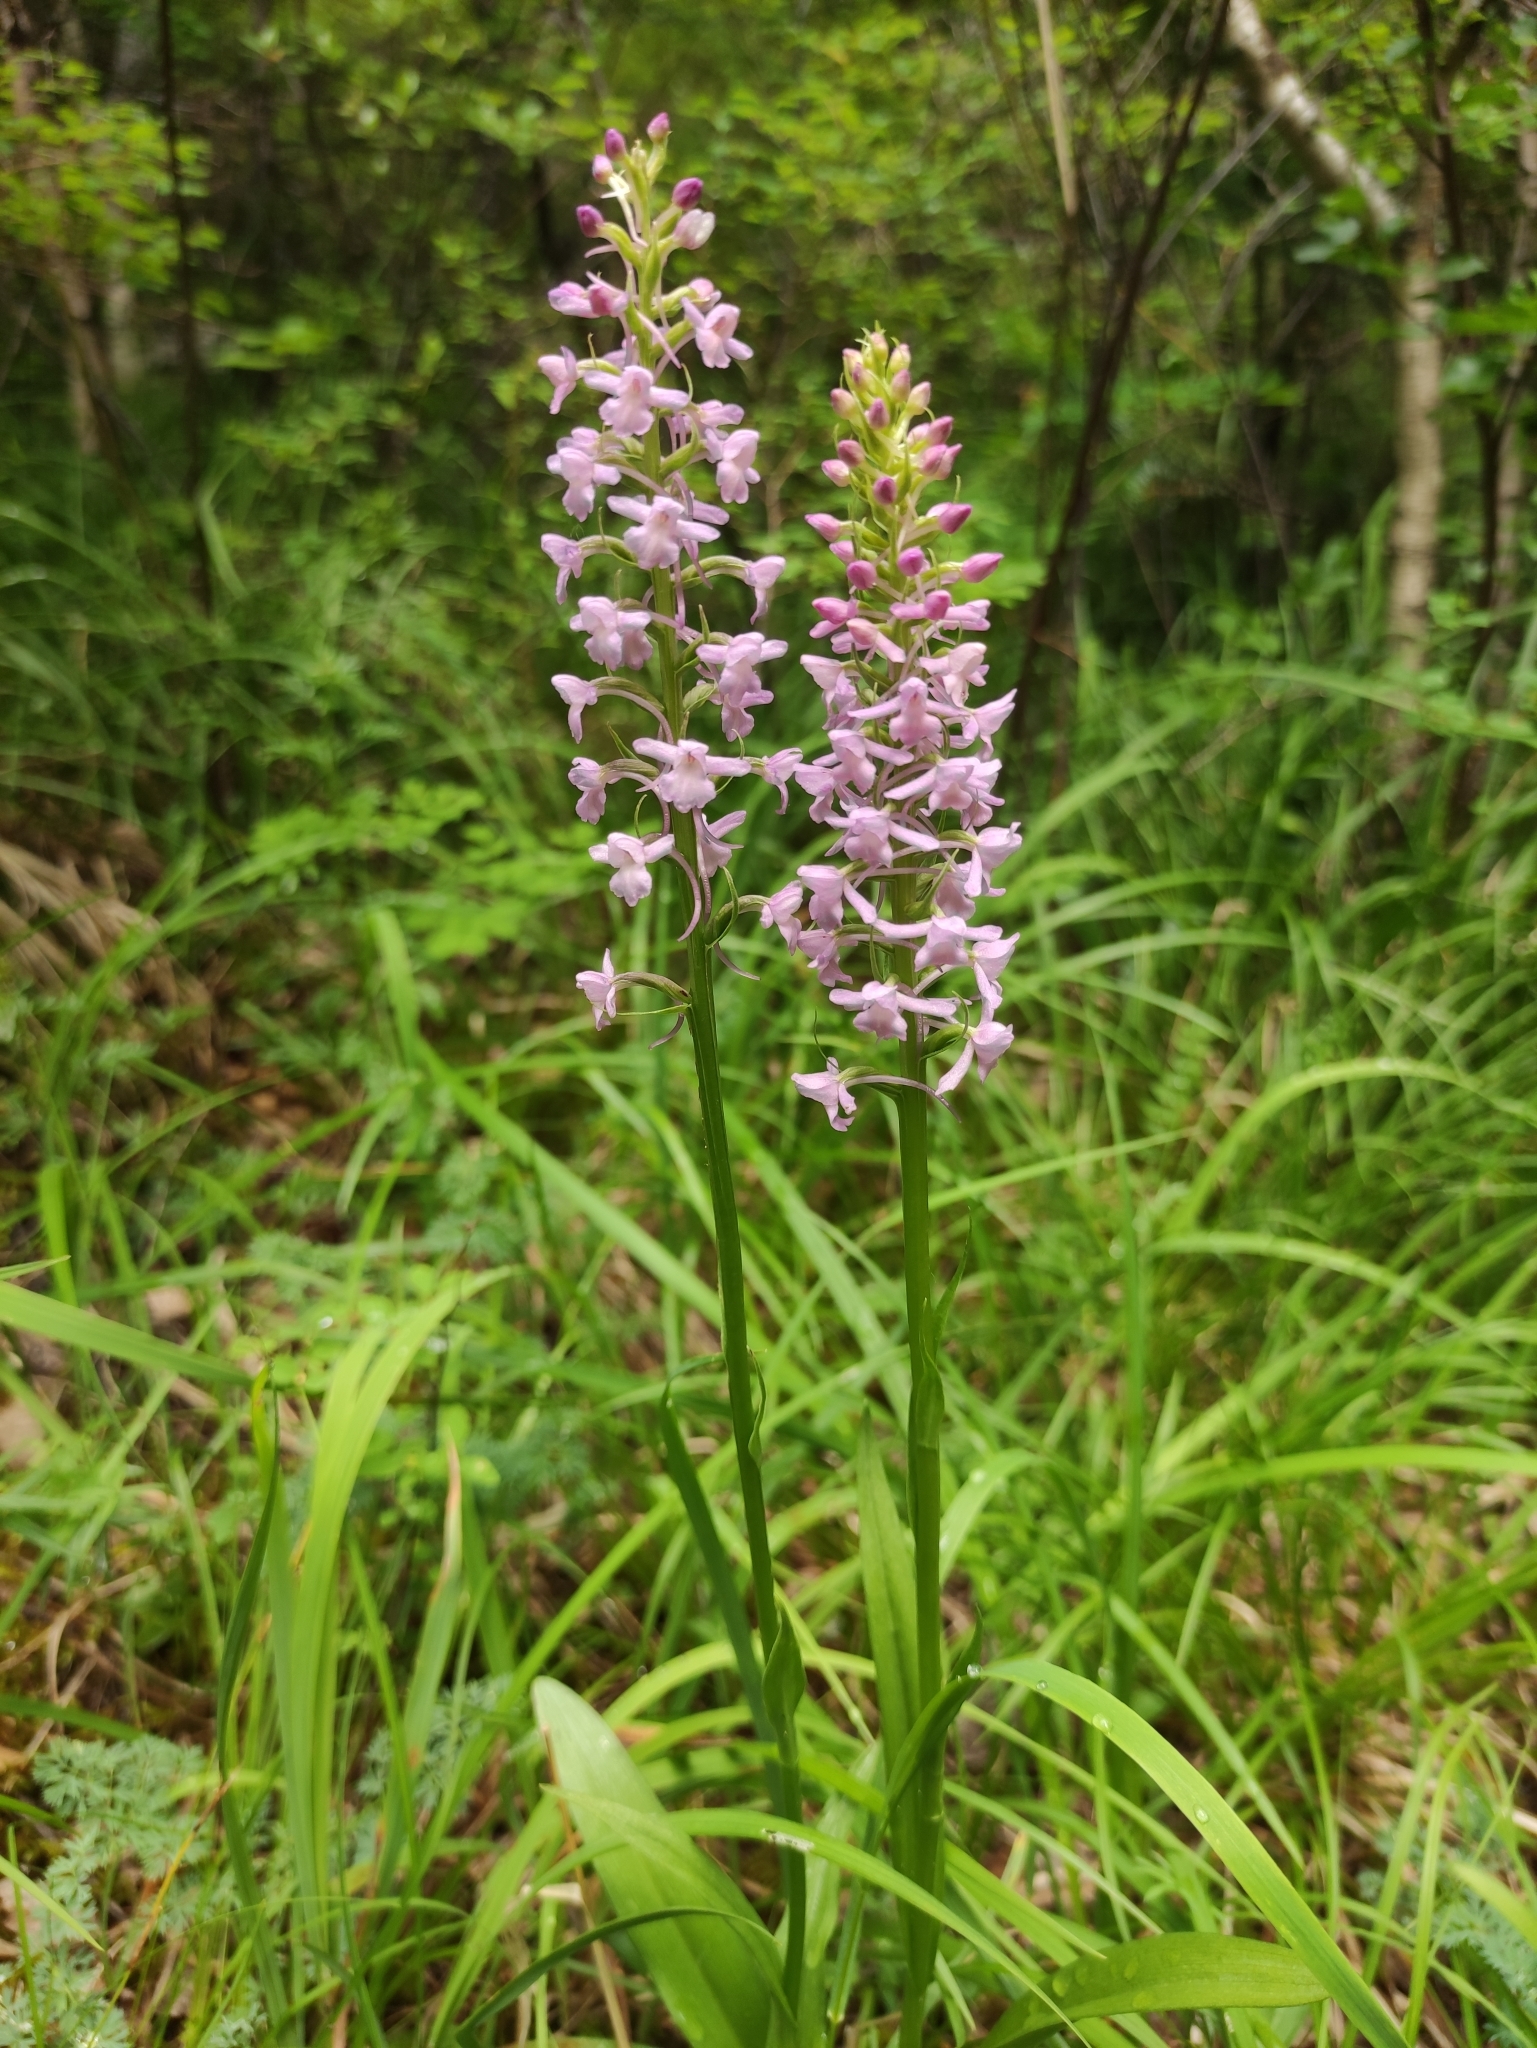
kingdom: Plantae
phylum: Tracheophyta
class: Liliopsida
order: Asparagales
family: Orchidaceae
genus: Gymnadenia
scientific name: Gymnadenia conopsea
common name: Fragrant orchid
